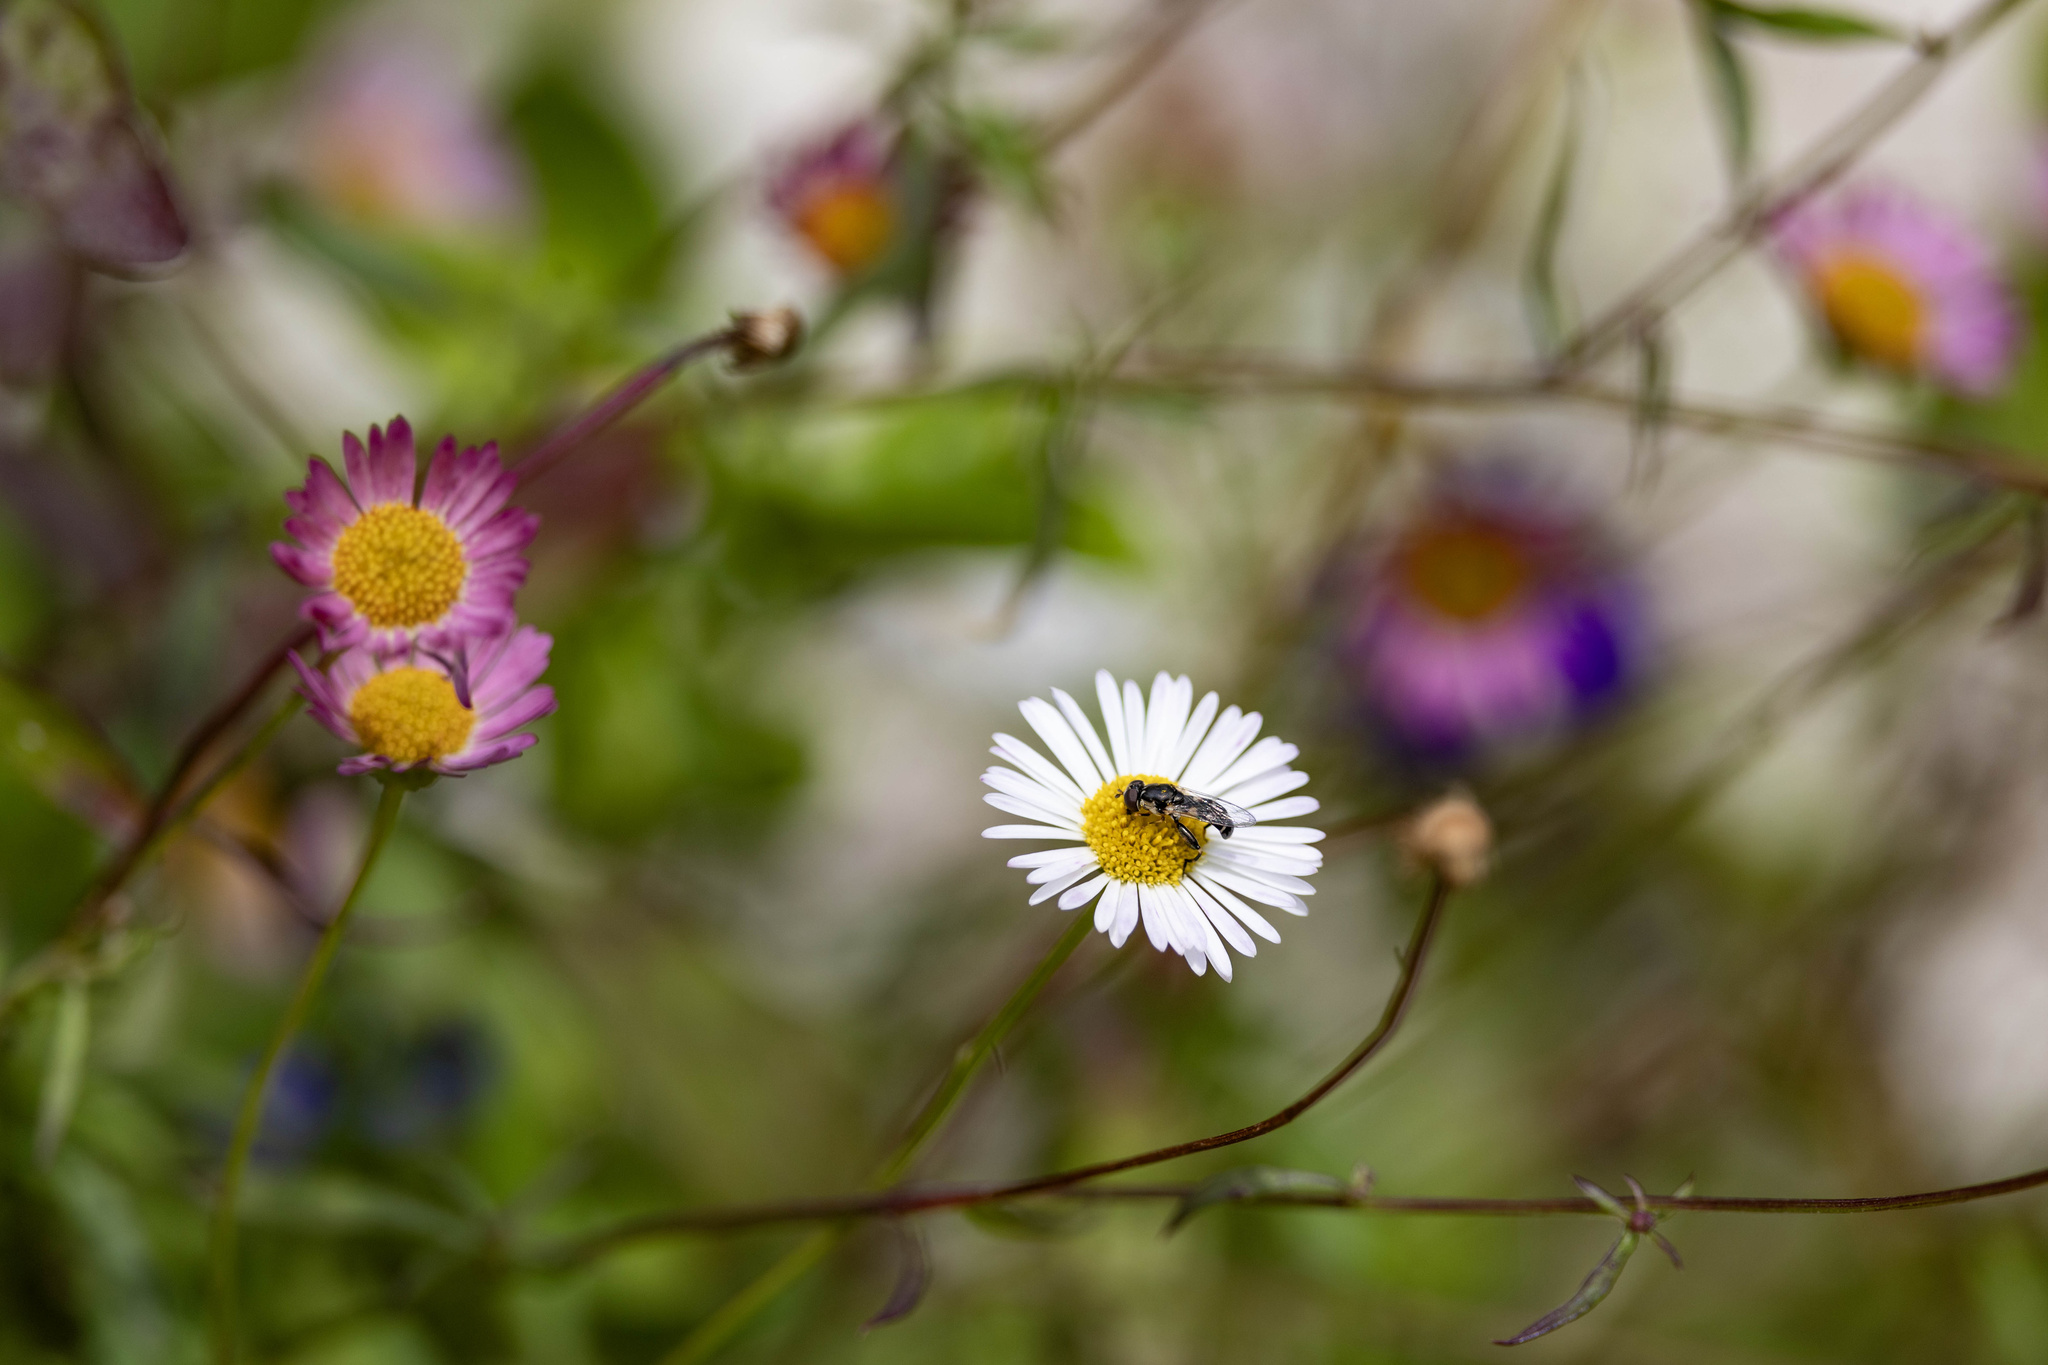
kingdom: Animalia
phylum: Arthropoda
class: Insecta
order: Diptera
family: Syrphidae
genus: Syritta
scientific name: Syritta pipiens
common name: Hover fly
